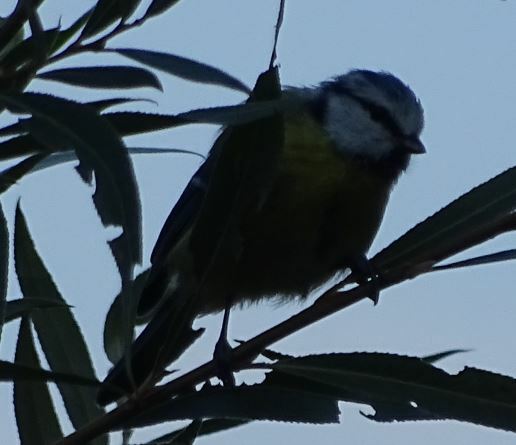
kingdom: Animalia
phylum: Chordata
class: Aves
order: Passeriformes
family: Paridae
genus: Cyanistes
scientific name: Cyanistes caeruleus
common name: Eurasian blue tit
